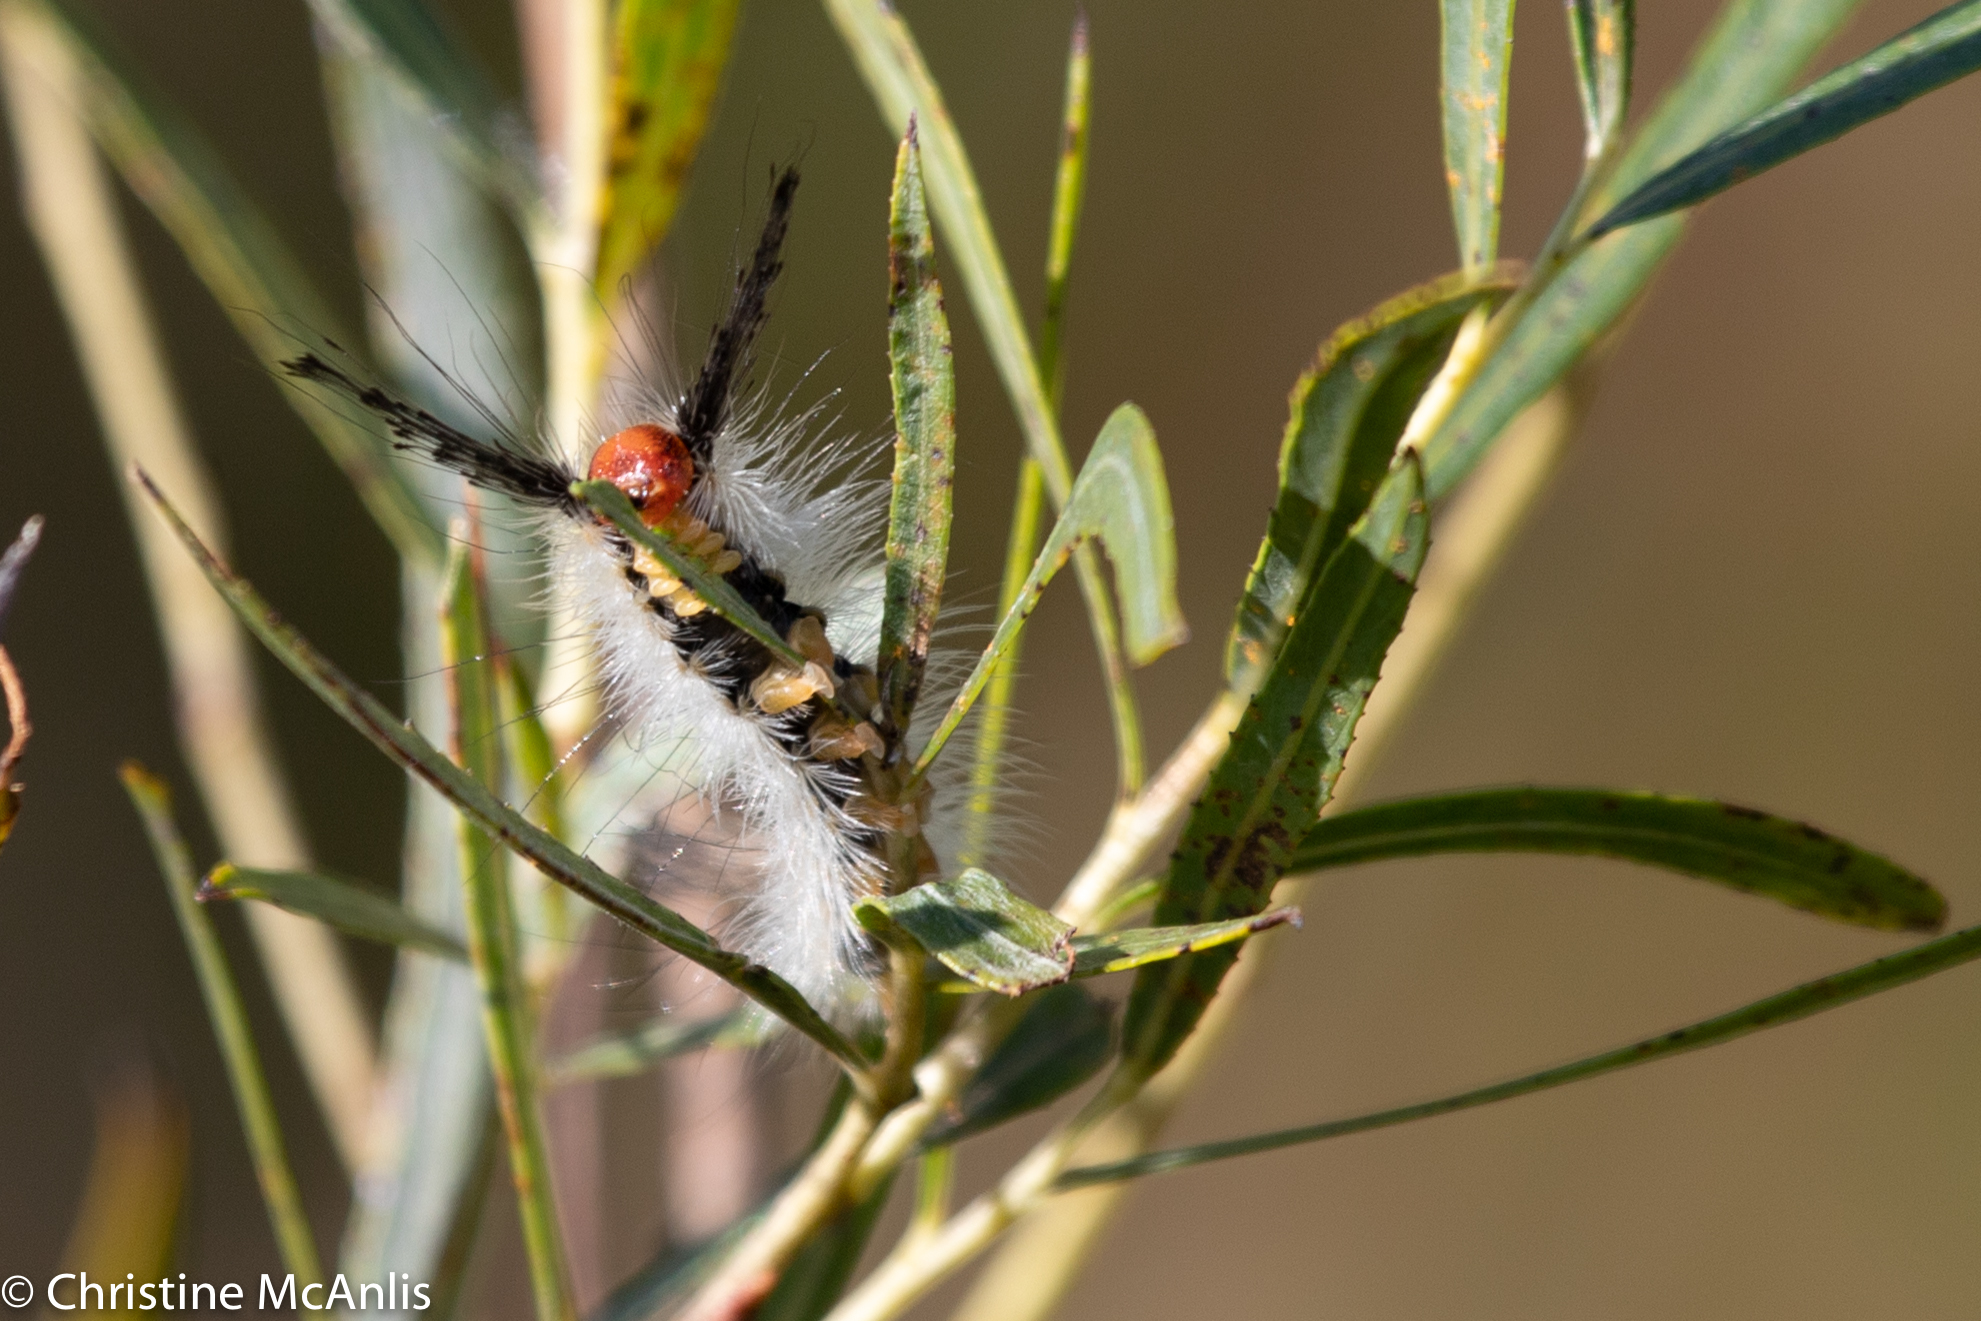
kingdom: Animalia
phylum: Arthropoda
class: Insecta
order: Lepidoptera
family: Erebidae
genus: Orgyia
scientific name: Orgyia leucostigma
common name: White-marked tussock moth
